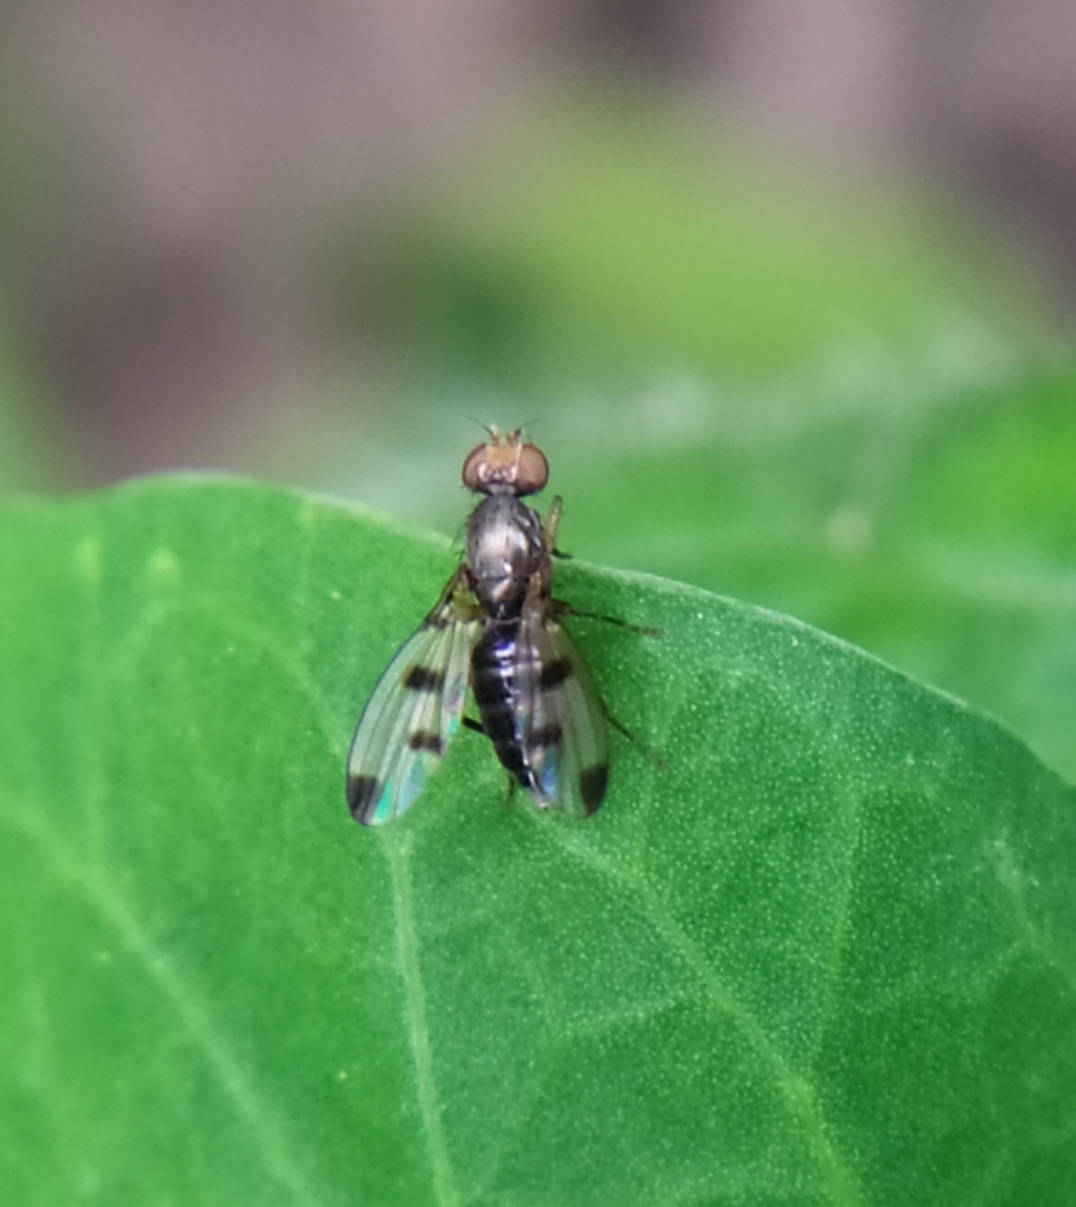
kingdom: Animalia
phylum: Arthropoda
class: Insecta
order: Diptera
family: Opomyzidae
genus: Geomyza
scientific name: Geomyza tripunctata
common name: Cereal fly
